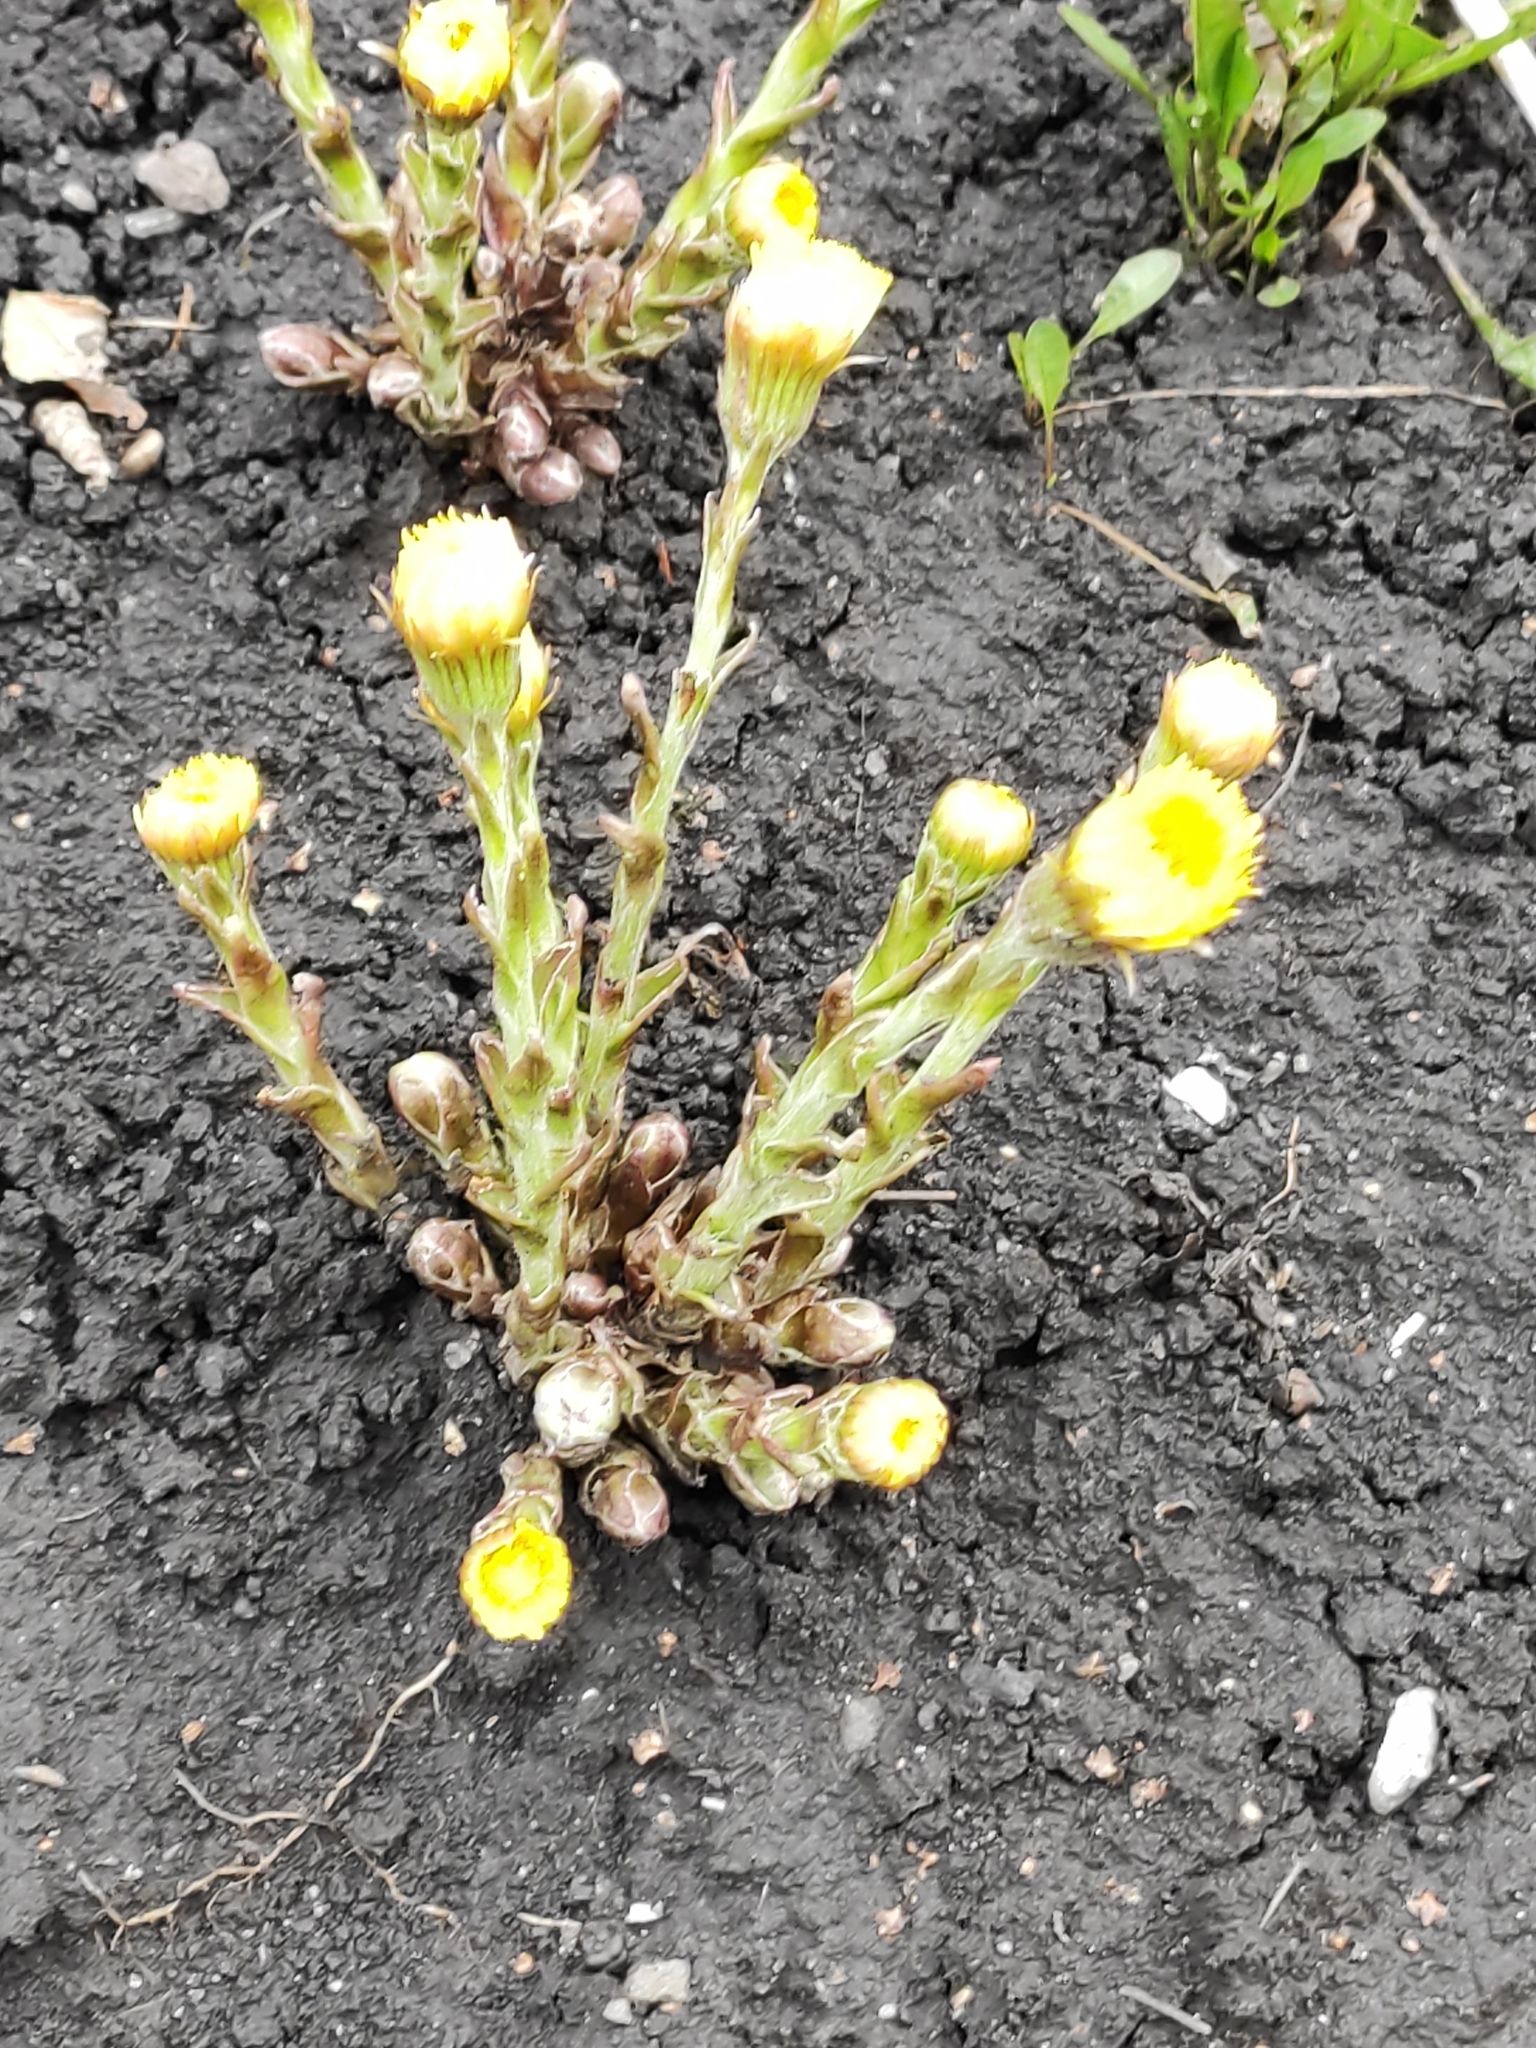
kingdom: Plantae
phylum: Tracheophyta
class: Magnoliopsida
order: Asterales
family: Asteraceae
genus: Tussilago
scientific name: Tussilago farfara
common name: Coltsfoot
